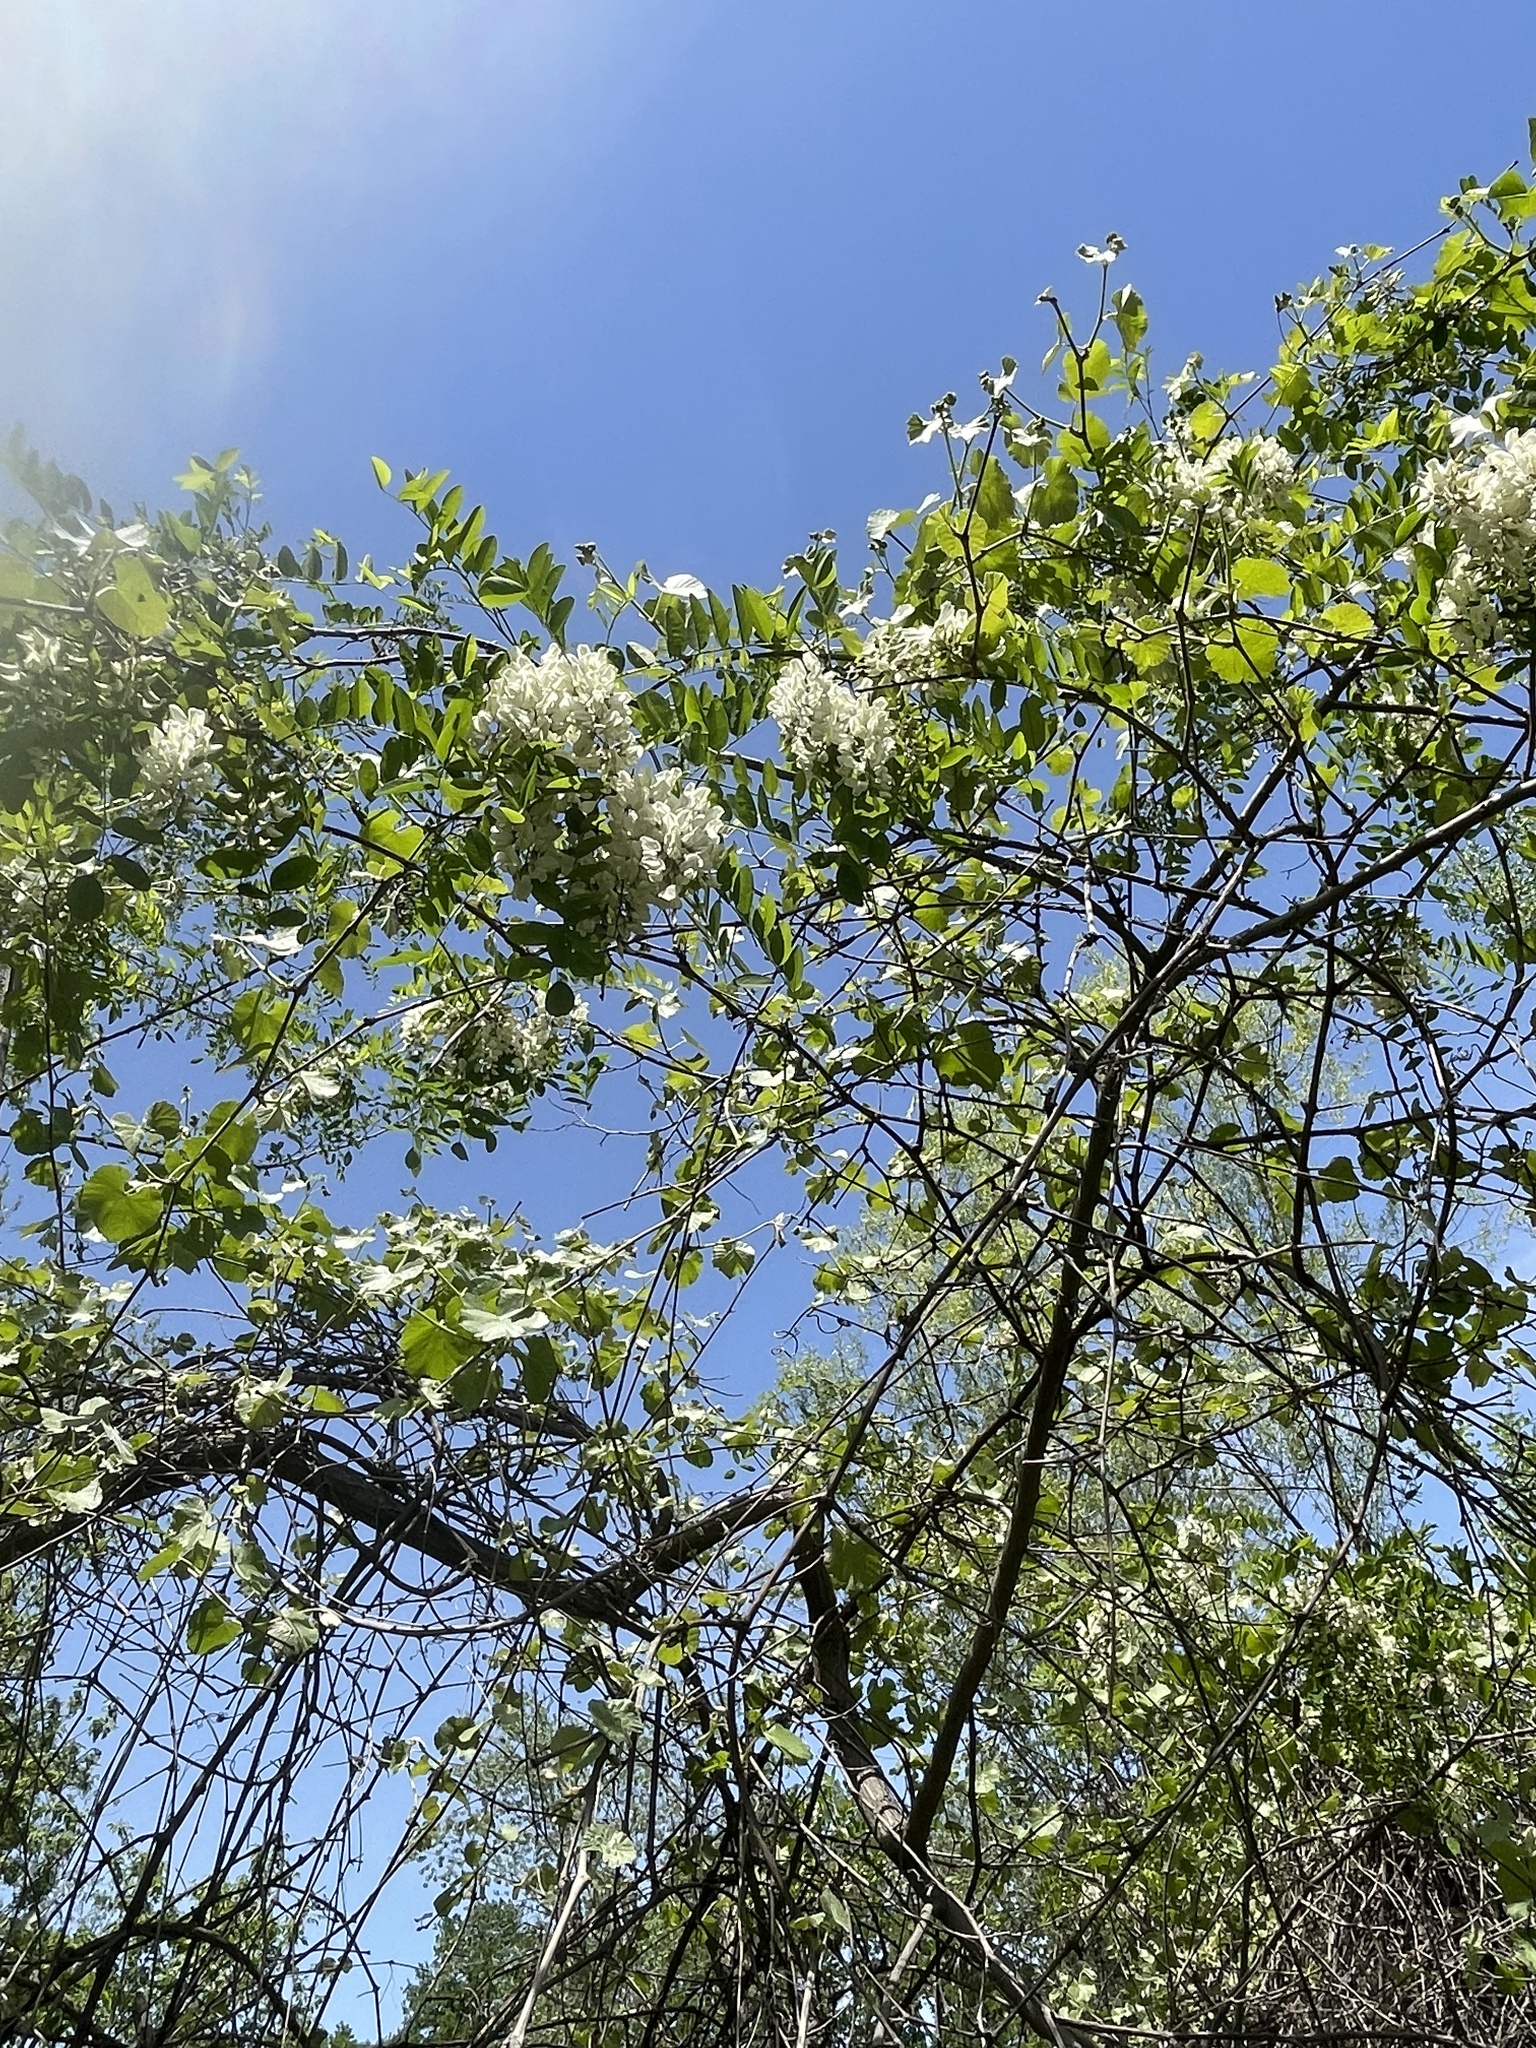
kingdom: Plantae
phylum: Tracheophyta
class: Magnoliopsida
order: Fabales
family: Fabaceae
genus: Robinia
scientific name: Robinia pseudoacacia
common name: Black locust
